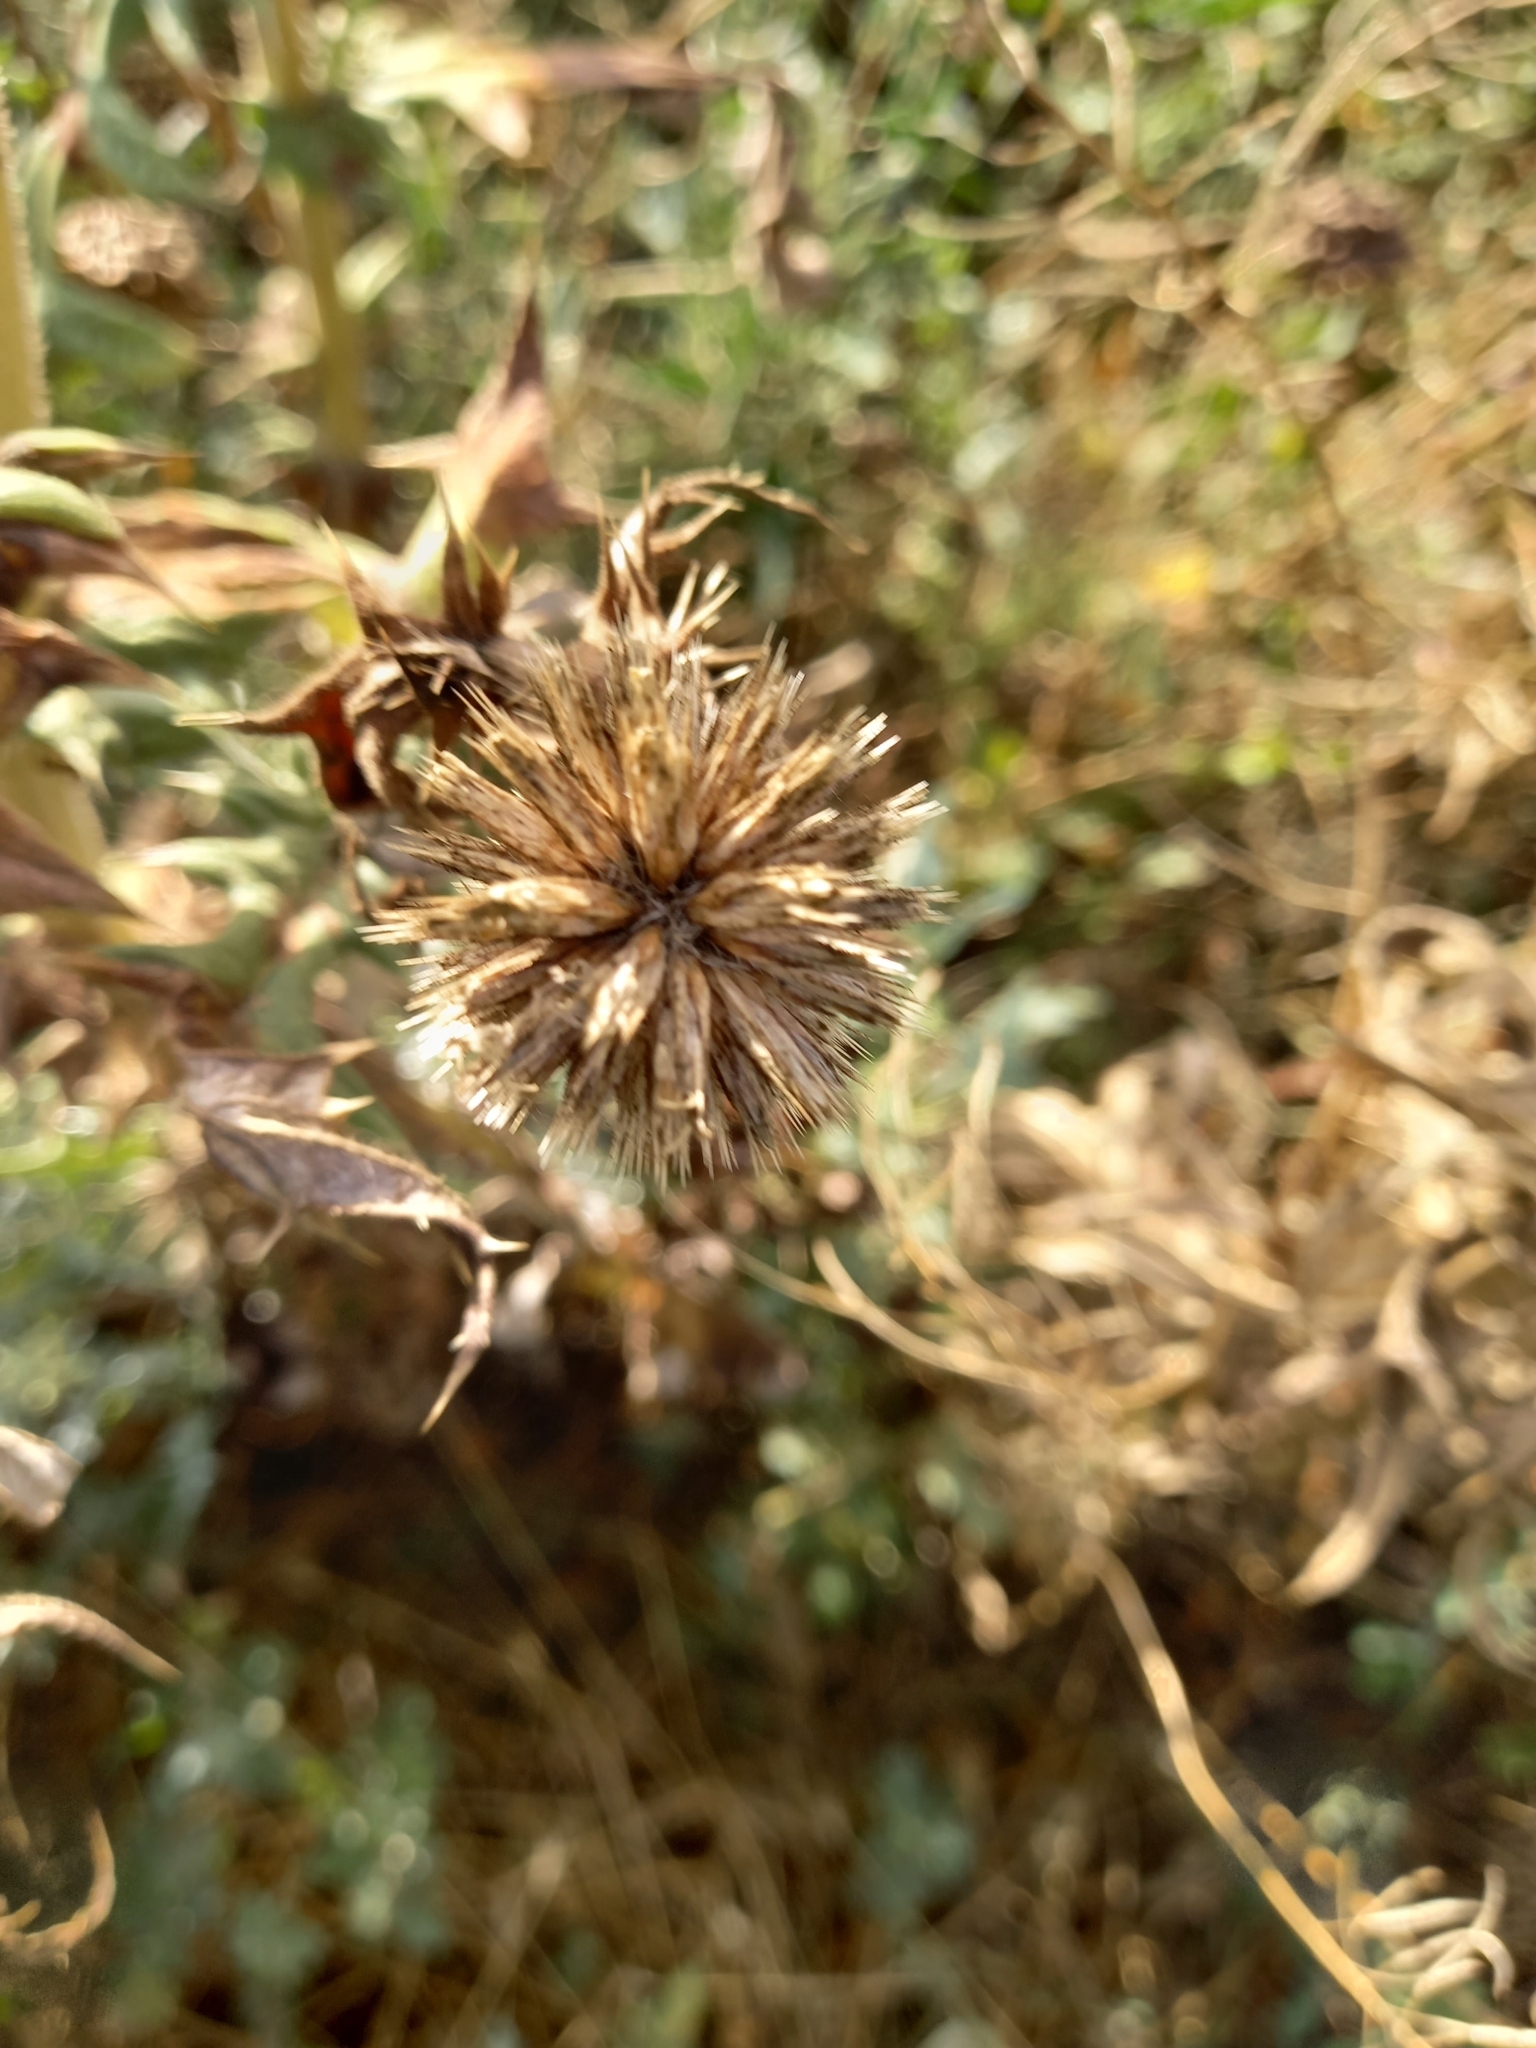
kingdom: Plantae
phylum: Tracheophyta
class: Magnoliopsida
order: Asterales
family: Asteraceae
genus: Echinops
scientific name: Echinops sphaerocephalus
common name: Glandular globe-thistle
